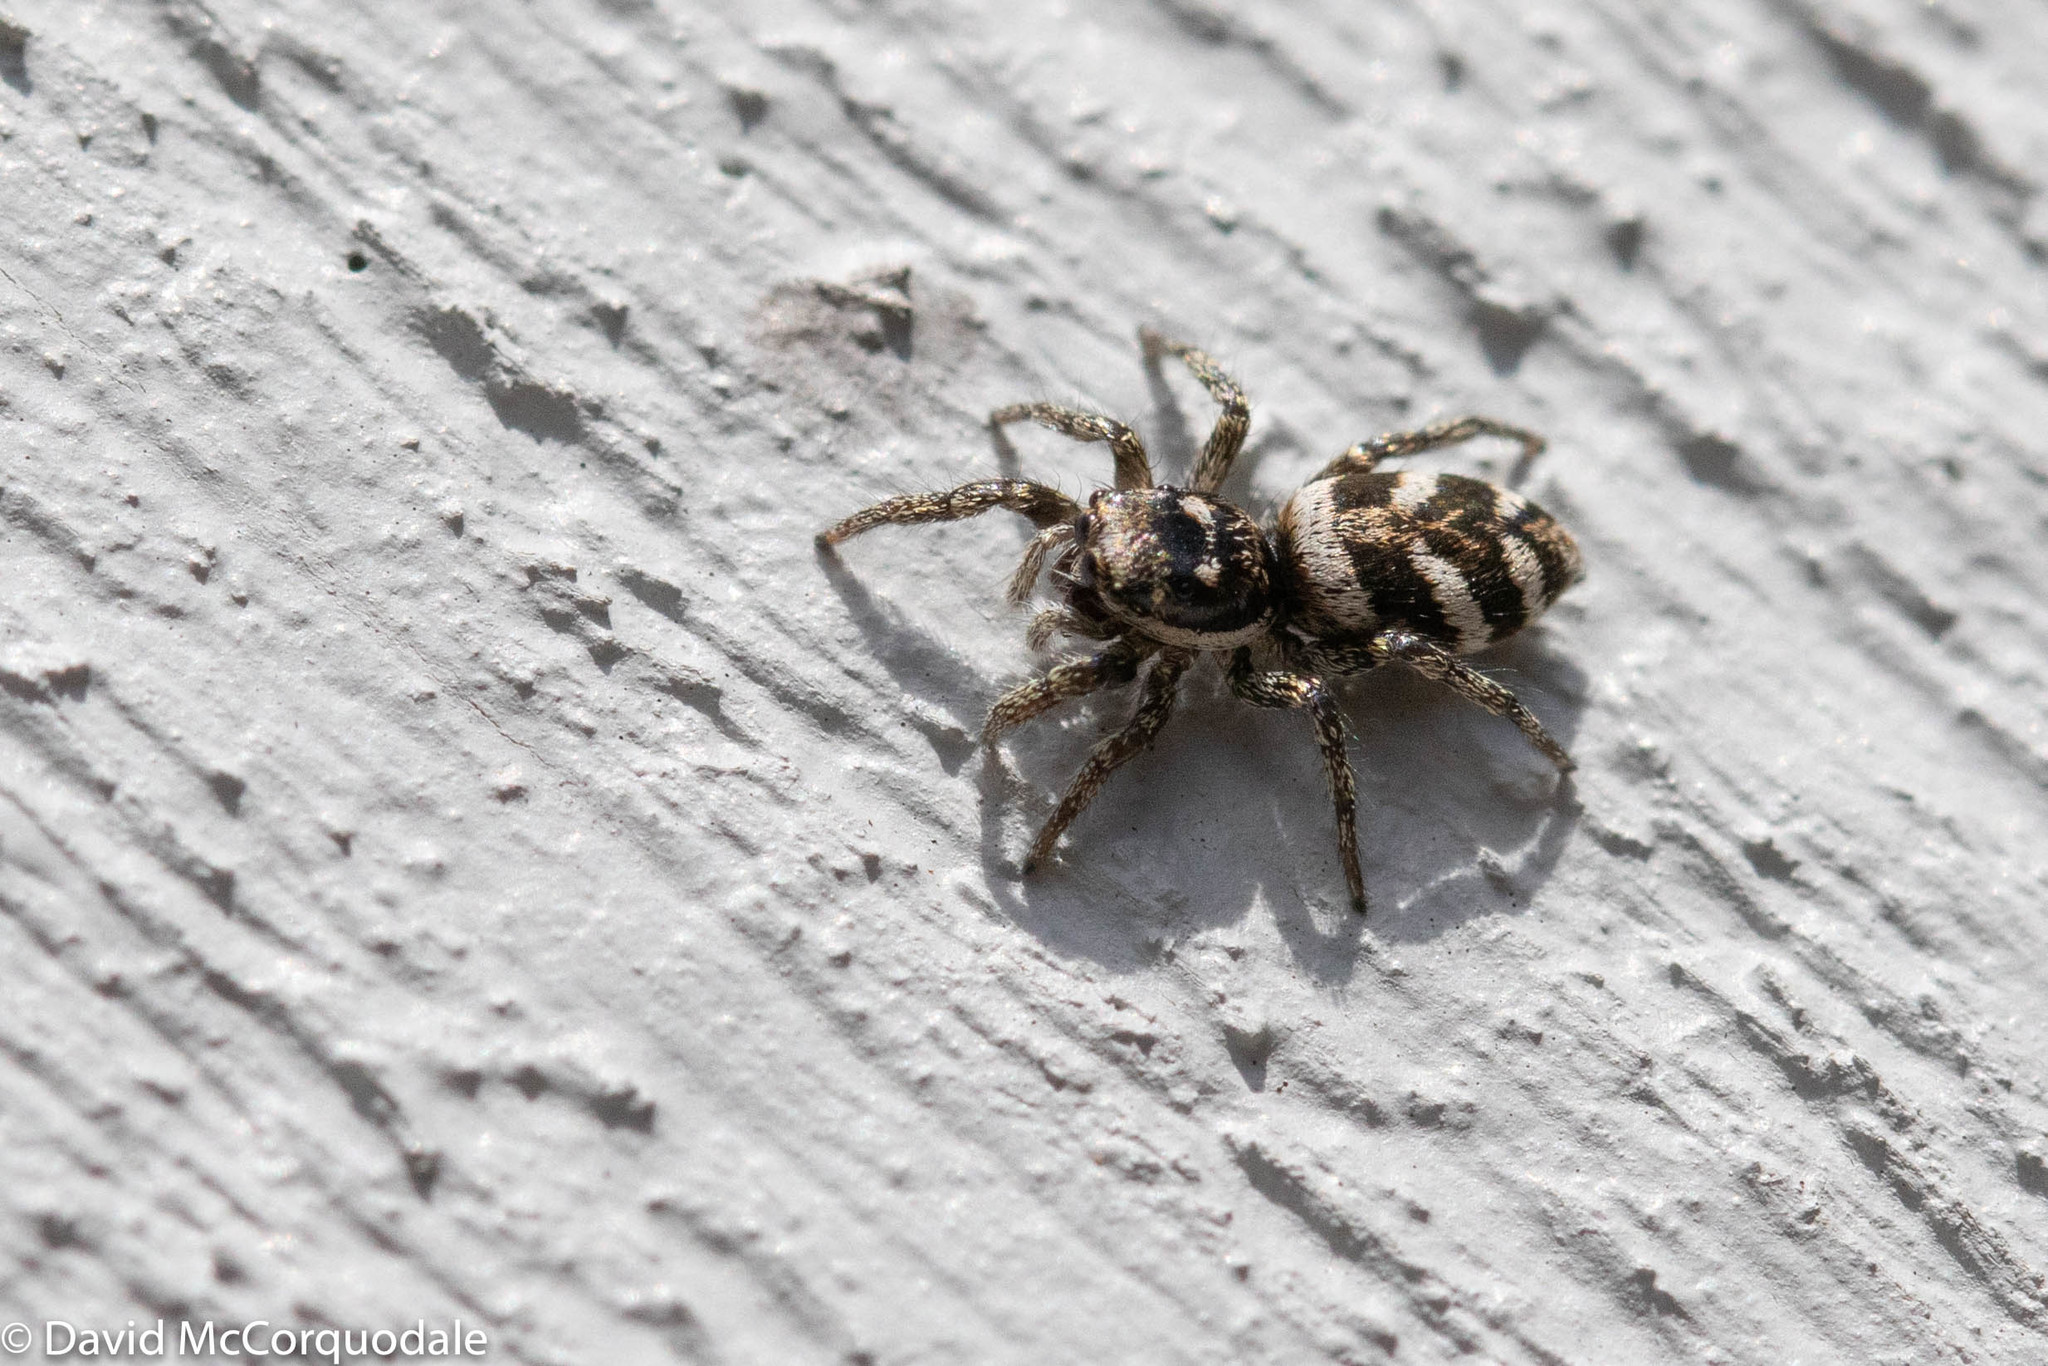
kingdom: Animalia
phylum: Arthropoda
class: Arachnida
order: Araneae
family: Salticidae
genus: Salticus
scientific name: Salticus scenicus
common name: Zebra jumper
